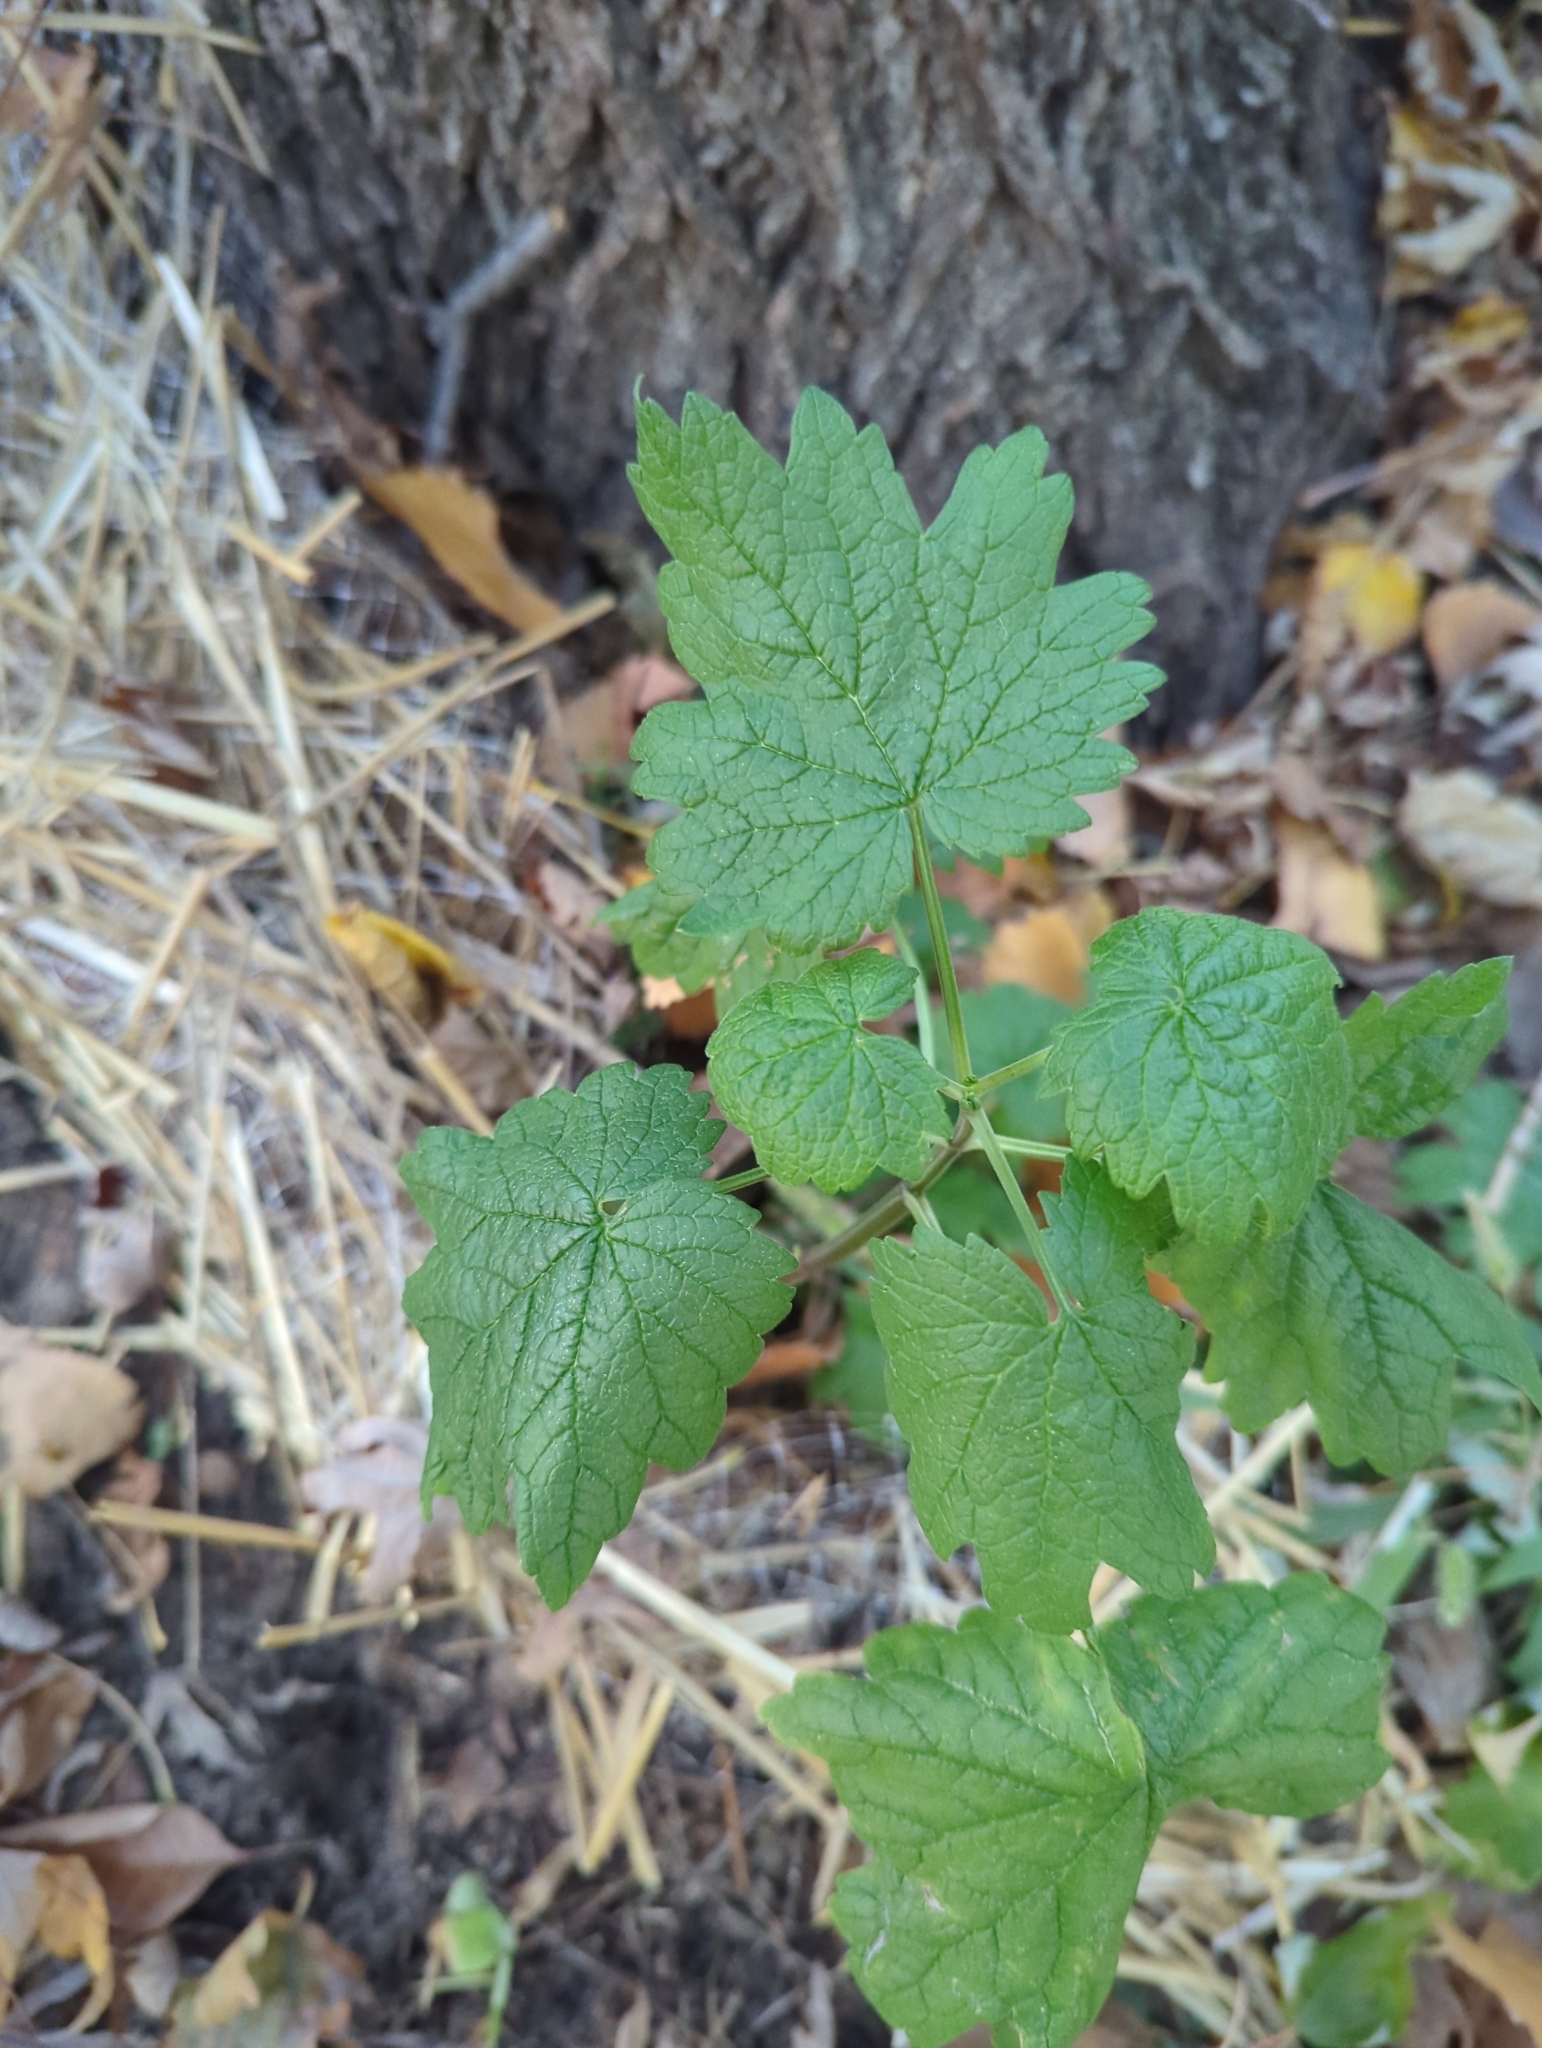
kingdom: Plantae
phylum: Tracheophyta
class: Magnoliopsida
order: Lamiales
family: Lamiaceae
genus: Leonurus
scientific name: Leonurus cardiaca
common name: Motherwort
